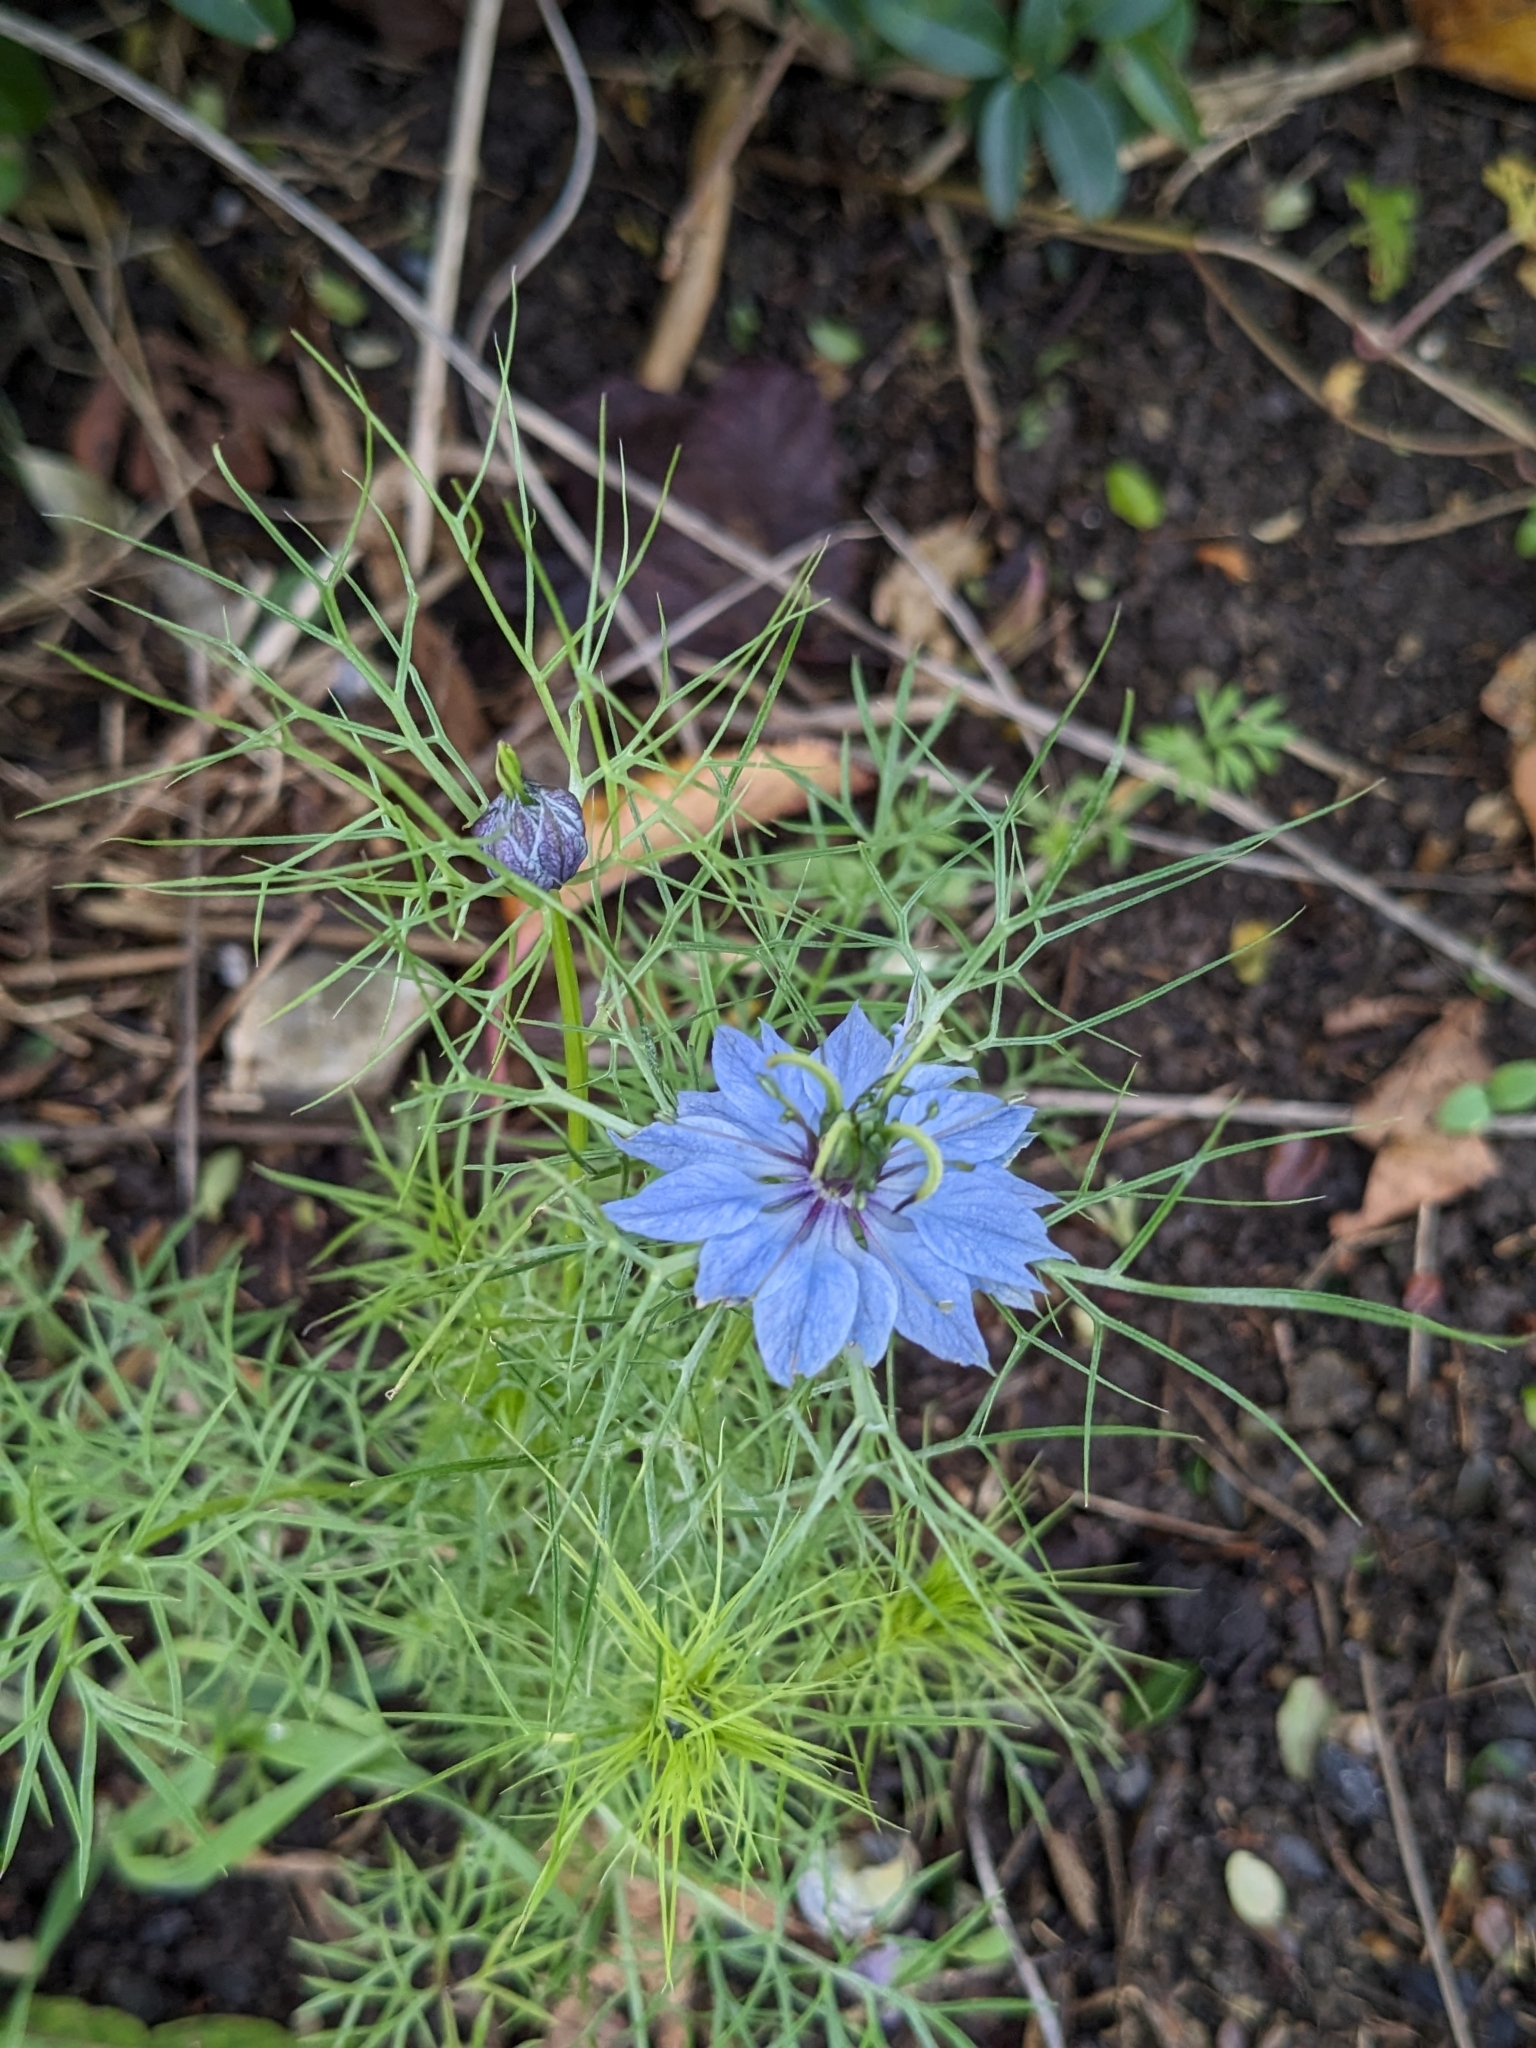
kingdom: Plantae
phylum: Tracheophyta
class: Magnoliopsida
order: Ranunculales
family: Ranunculaceae
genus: Nigella
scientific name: Nigella damascena
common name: Love-in-a-mist
